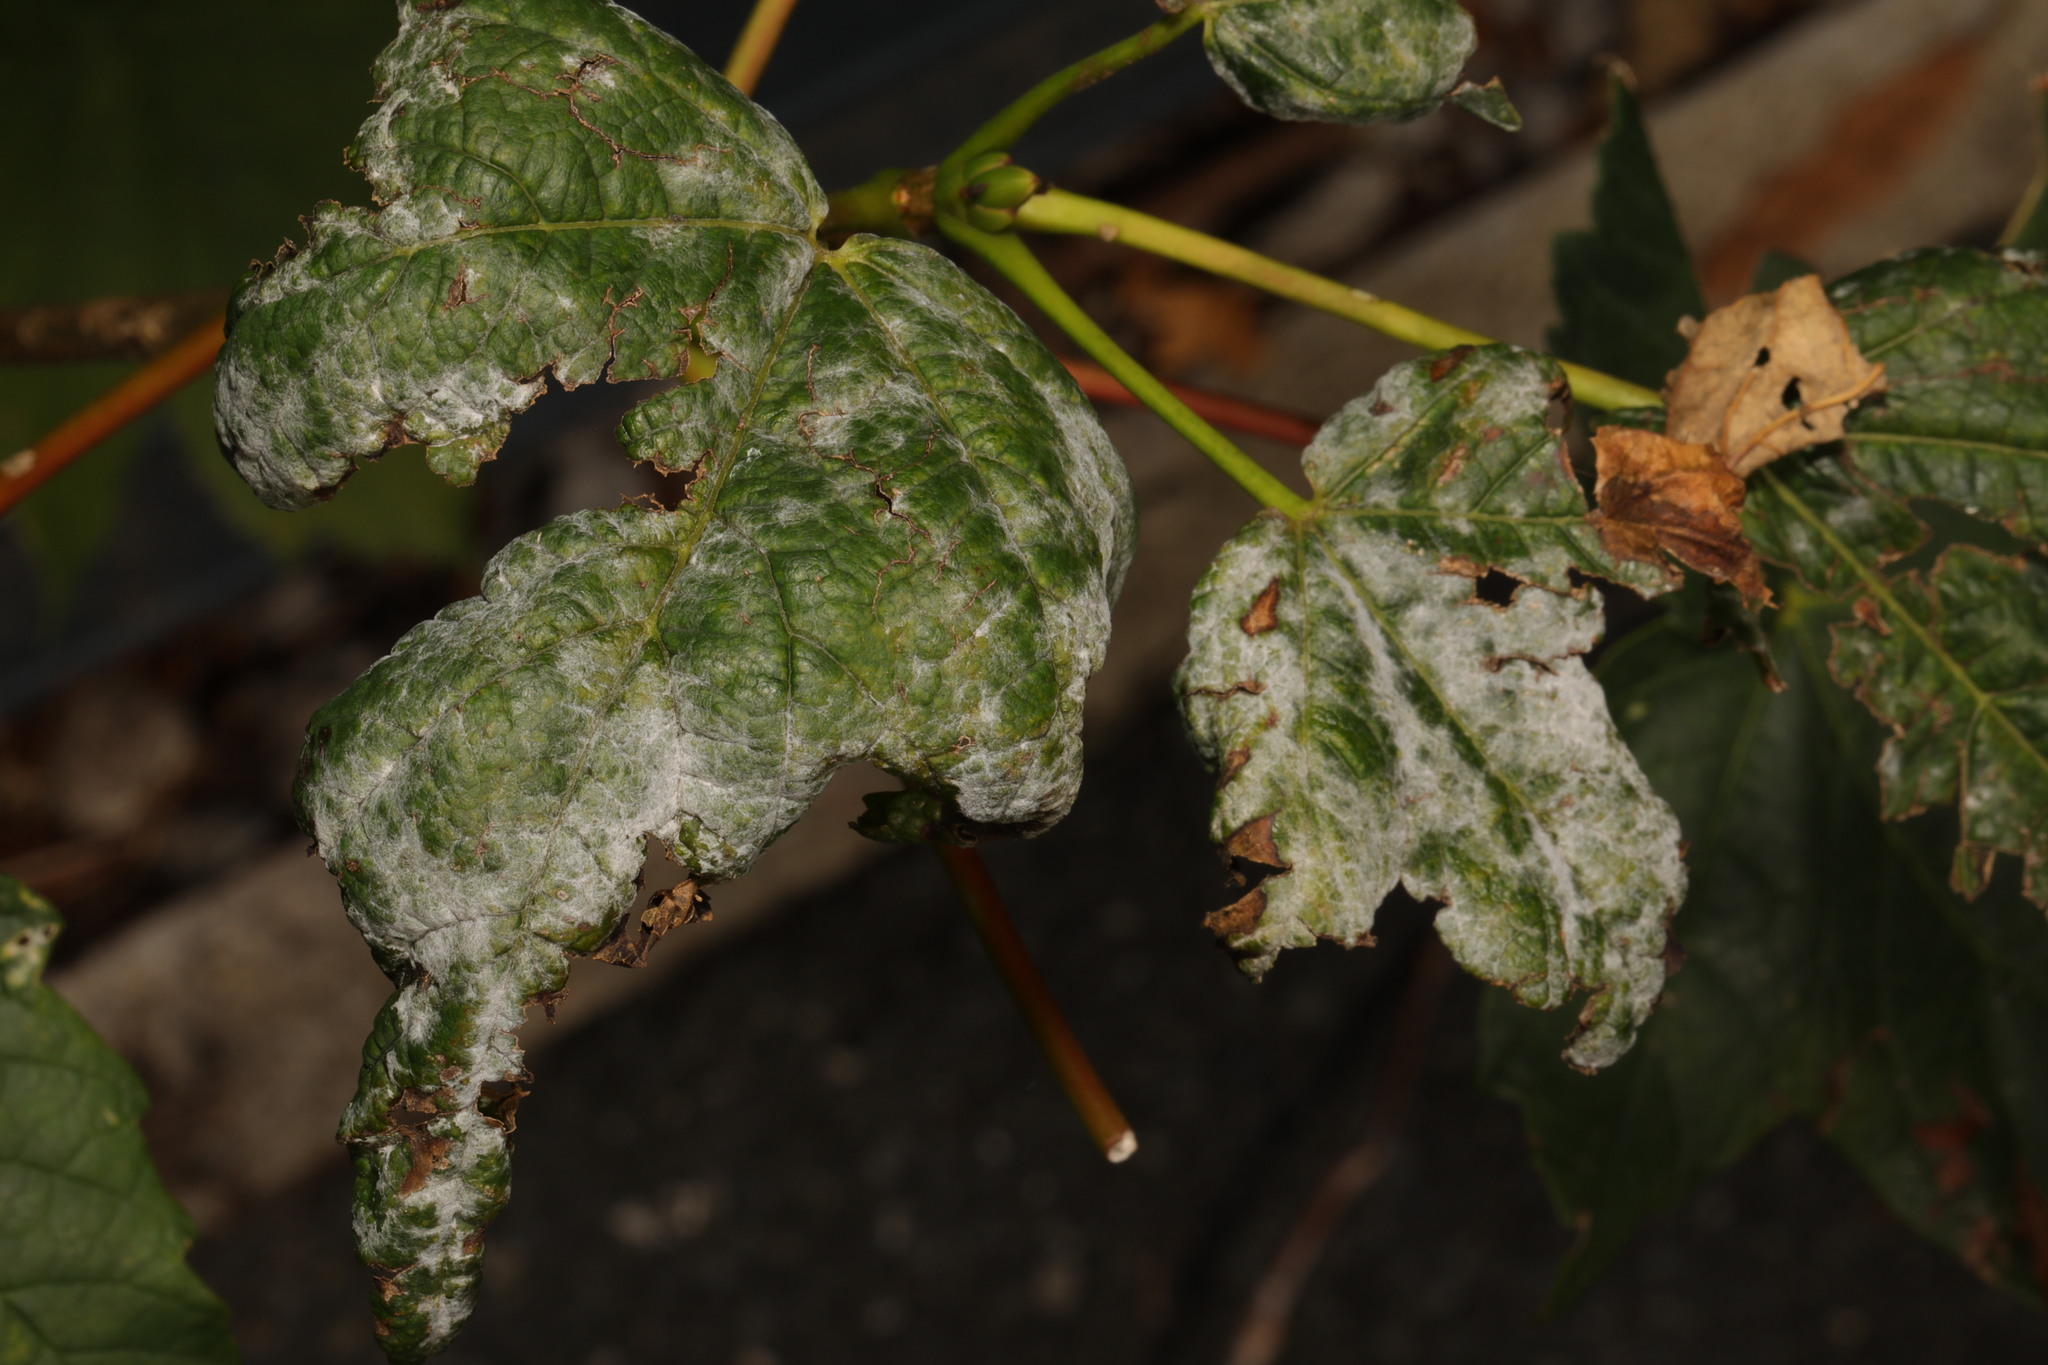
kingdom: Fungi
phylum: Ascomycota
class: Leotiomycetes
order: Helotiales
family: Erysiphaceae
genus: Sawadaea
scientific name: Sawadaea bicornis
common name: Maple mildew
